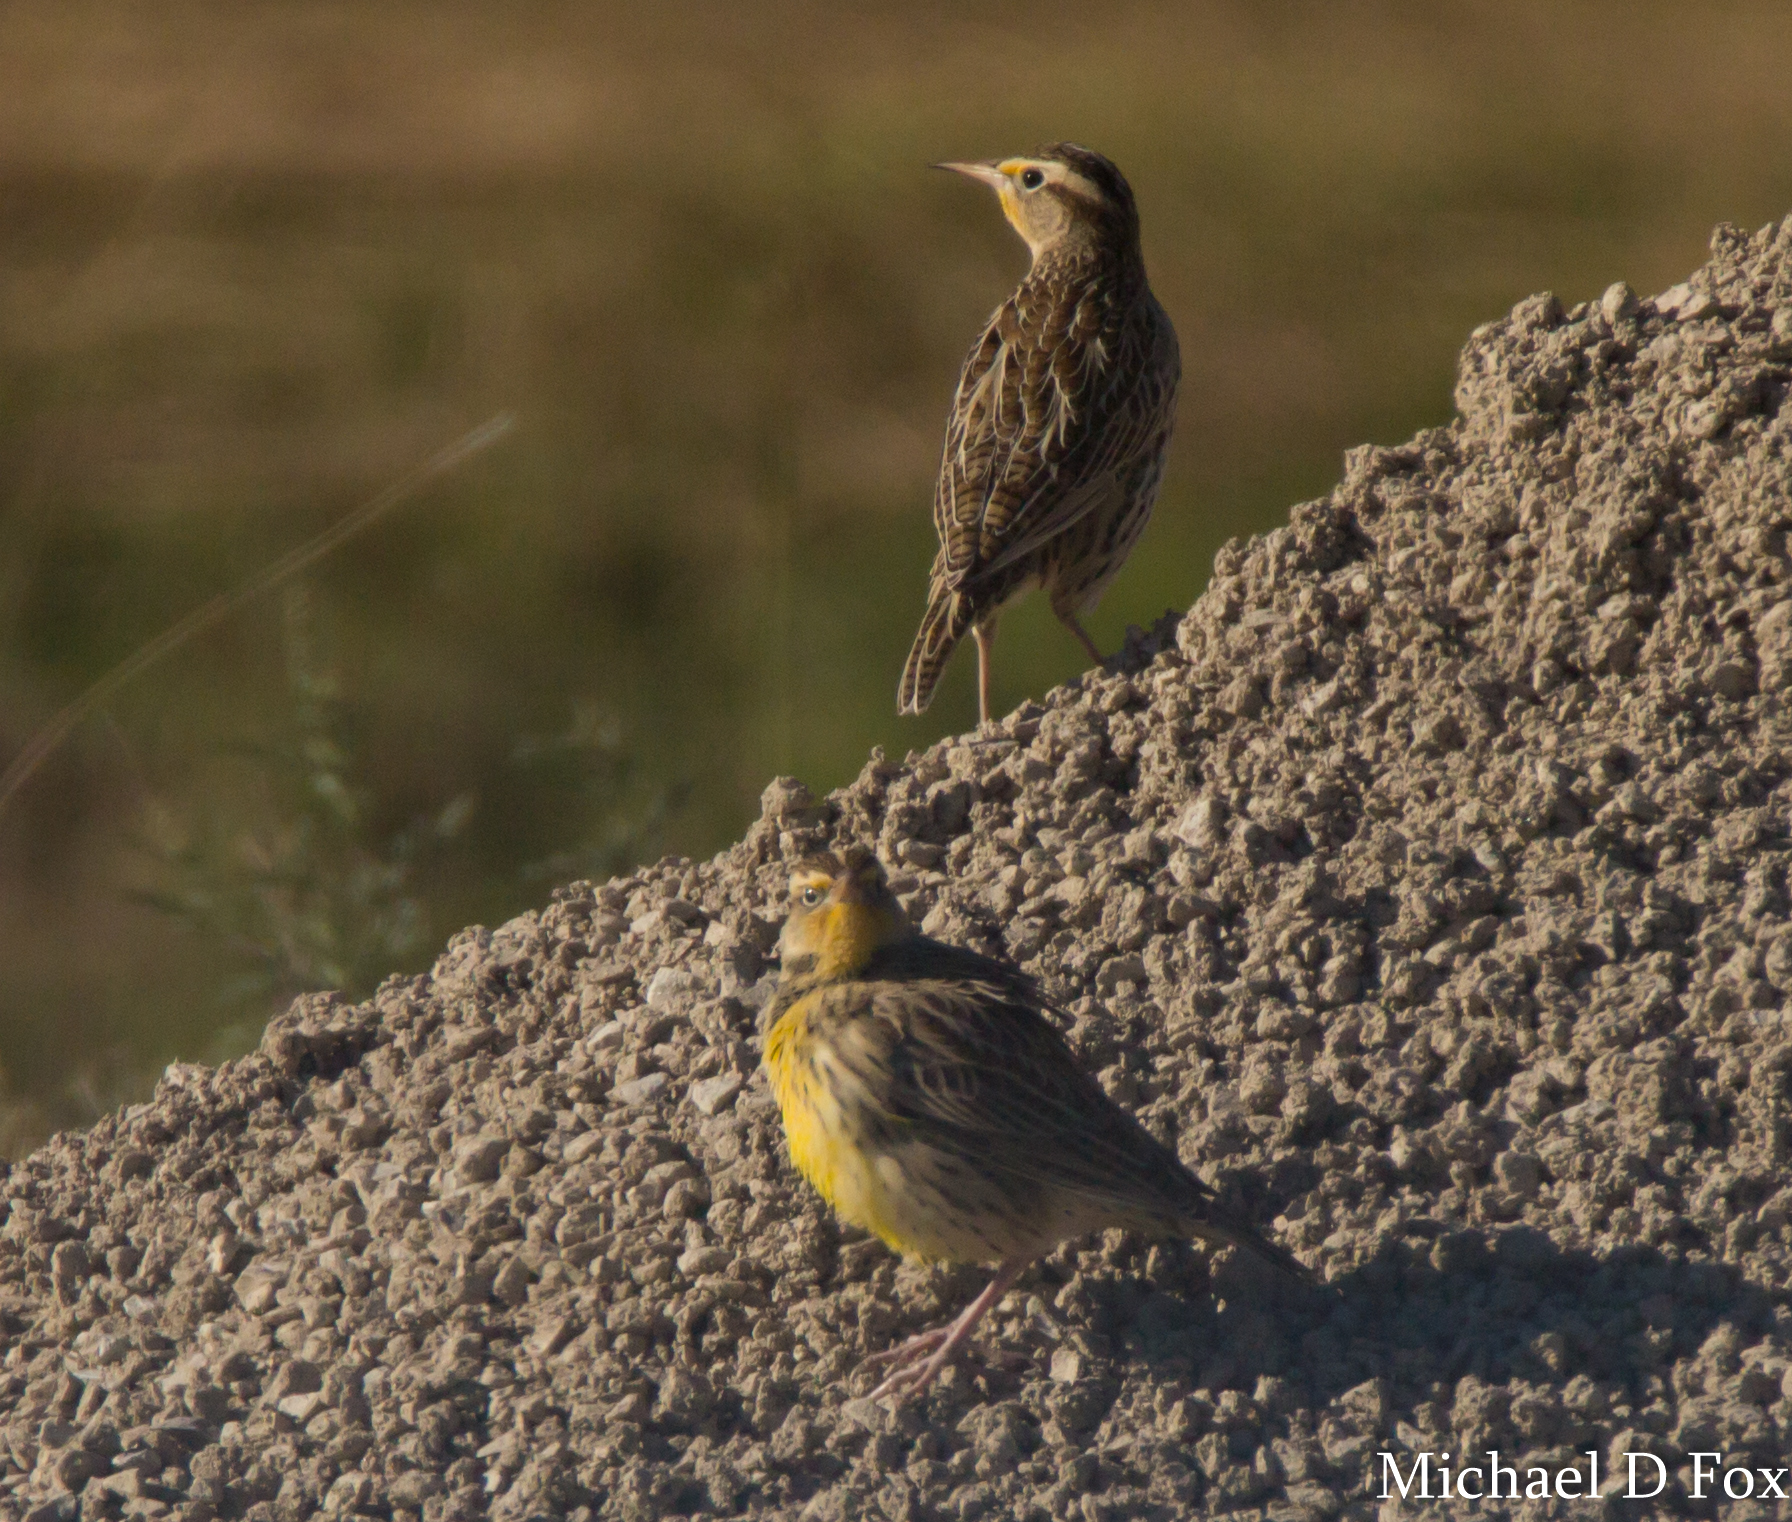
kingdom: Animalia
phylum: Chordata
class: Aves
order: Passeriformes
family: Icteridae
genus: Sturnella
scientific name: Sturnella neglecta
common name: Western meadowlark
